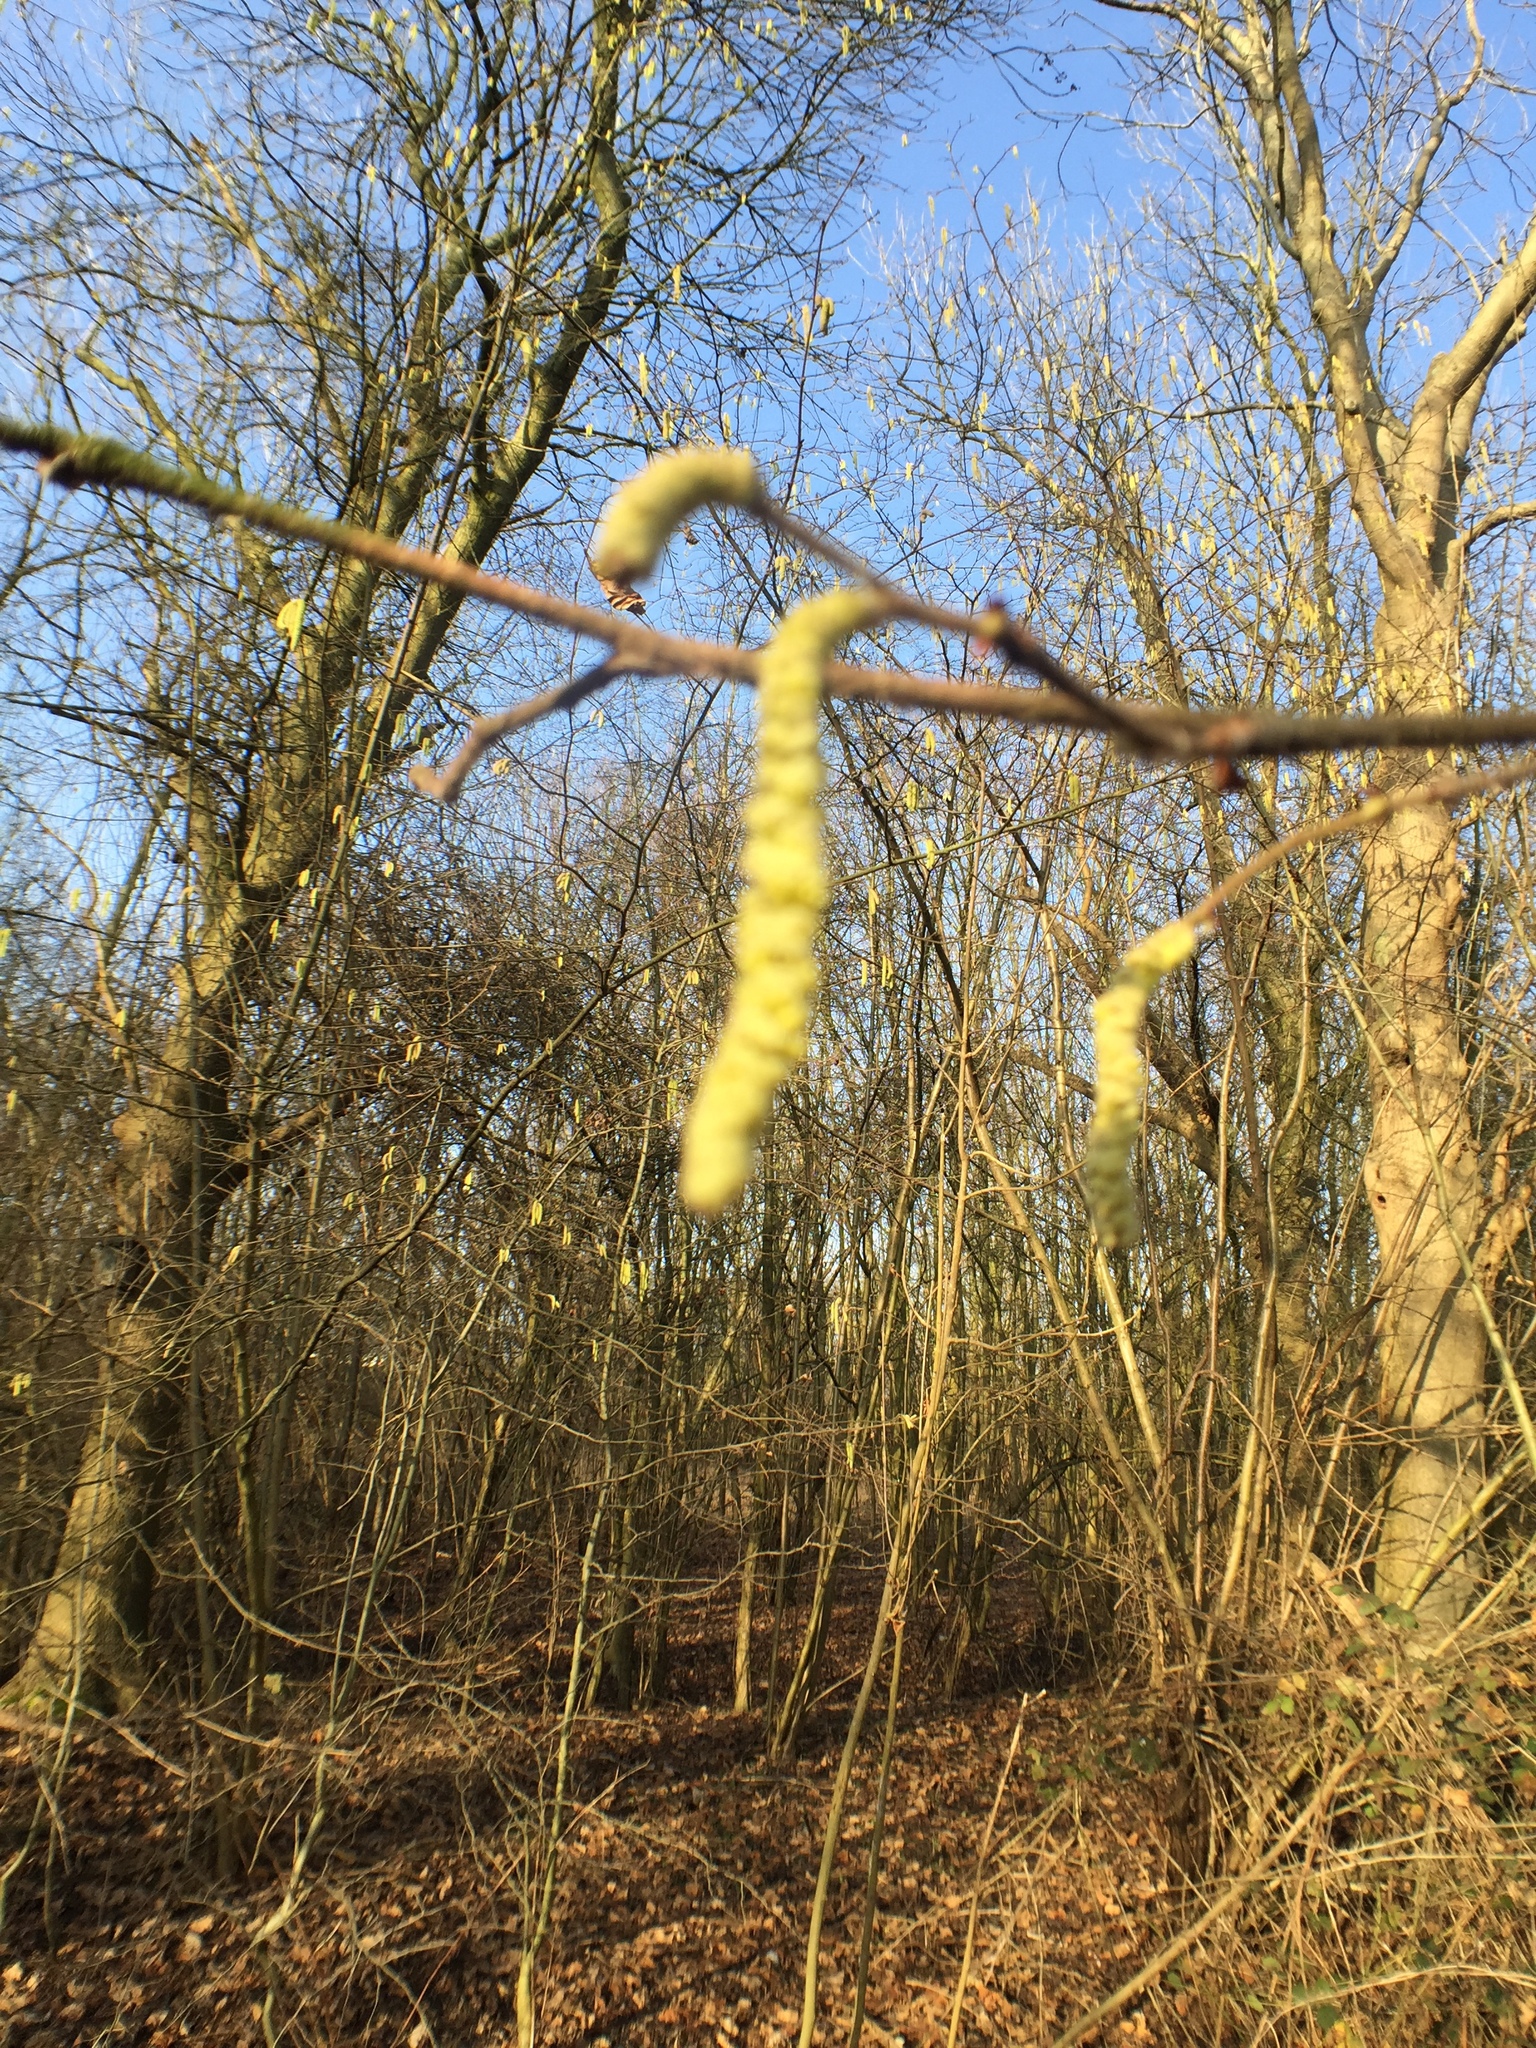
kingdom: Plantae
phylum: Tracheophyta
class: Magnoliopsida
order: Fagales
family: Betulaceae
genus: Corylus
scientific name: Corylus avellana
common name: European hazel
